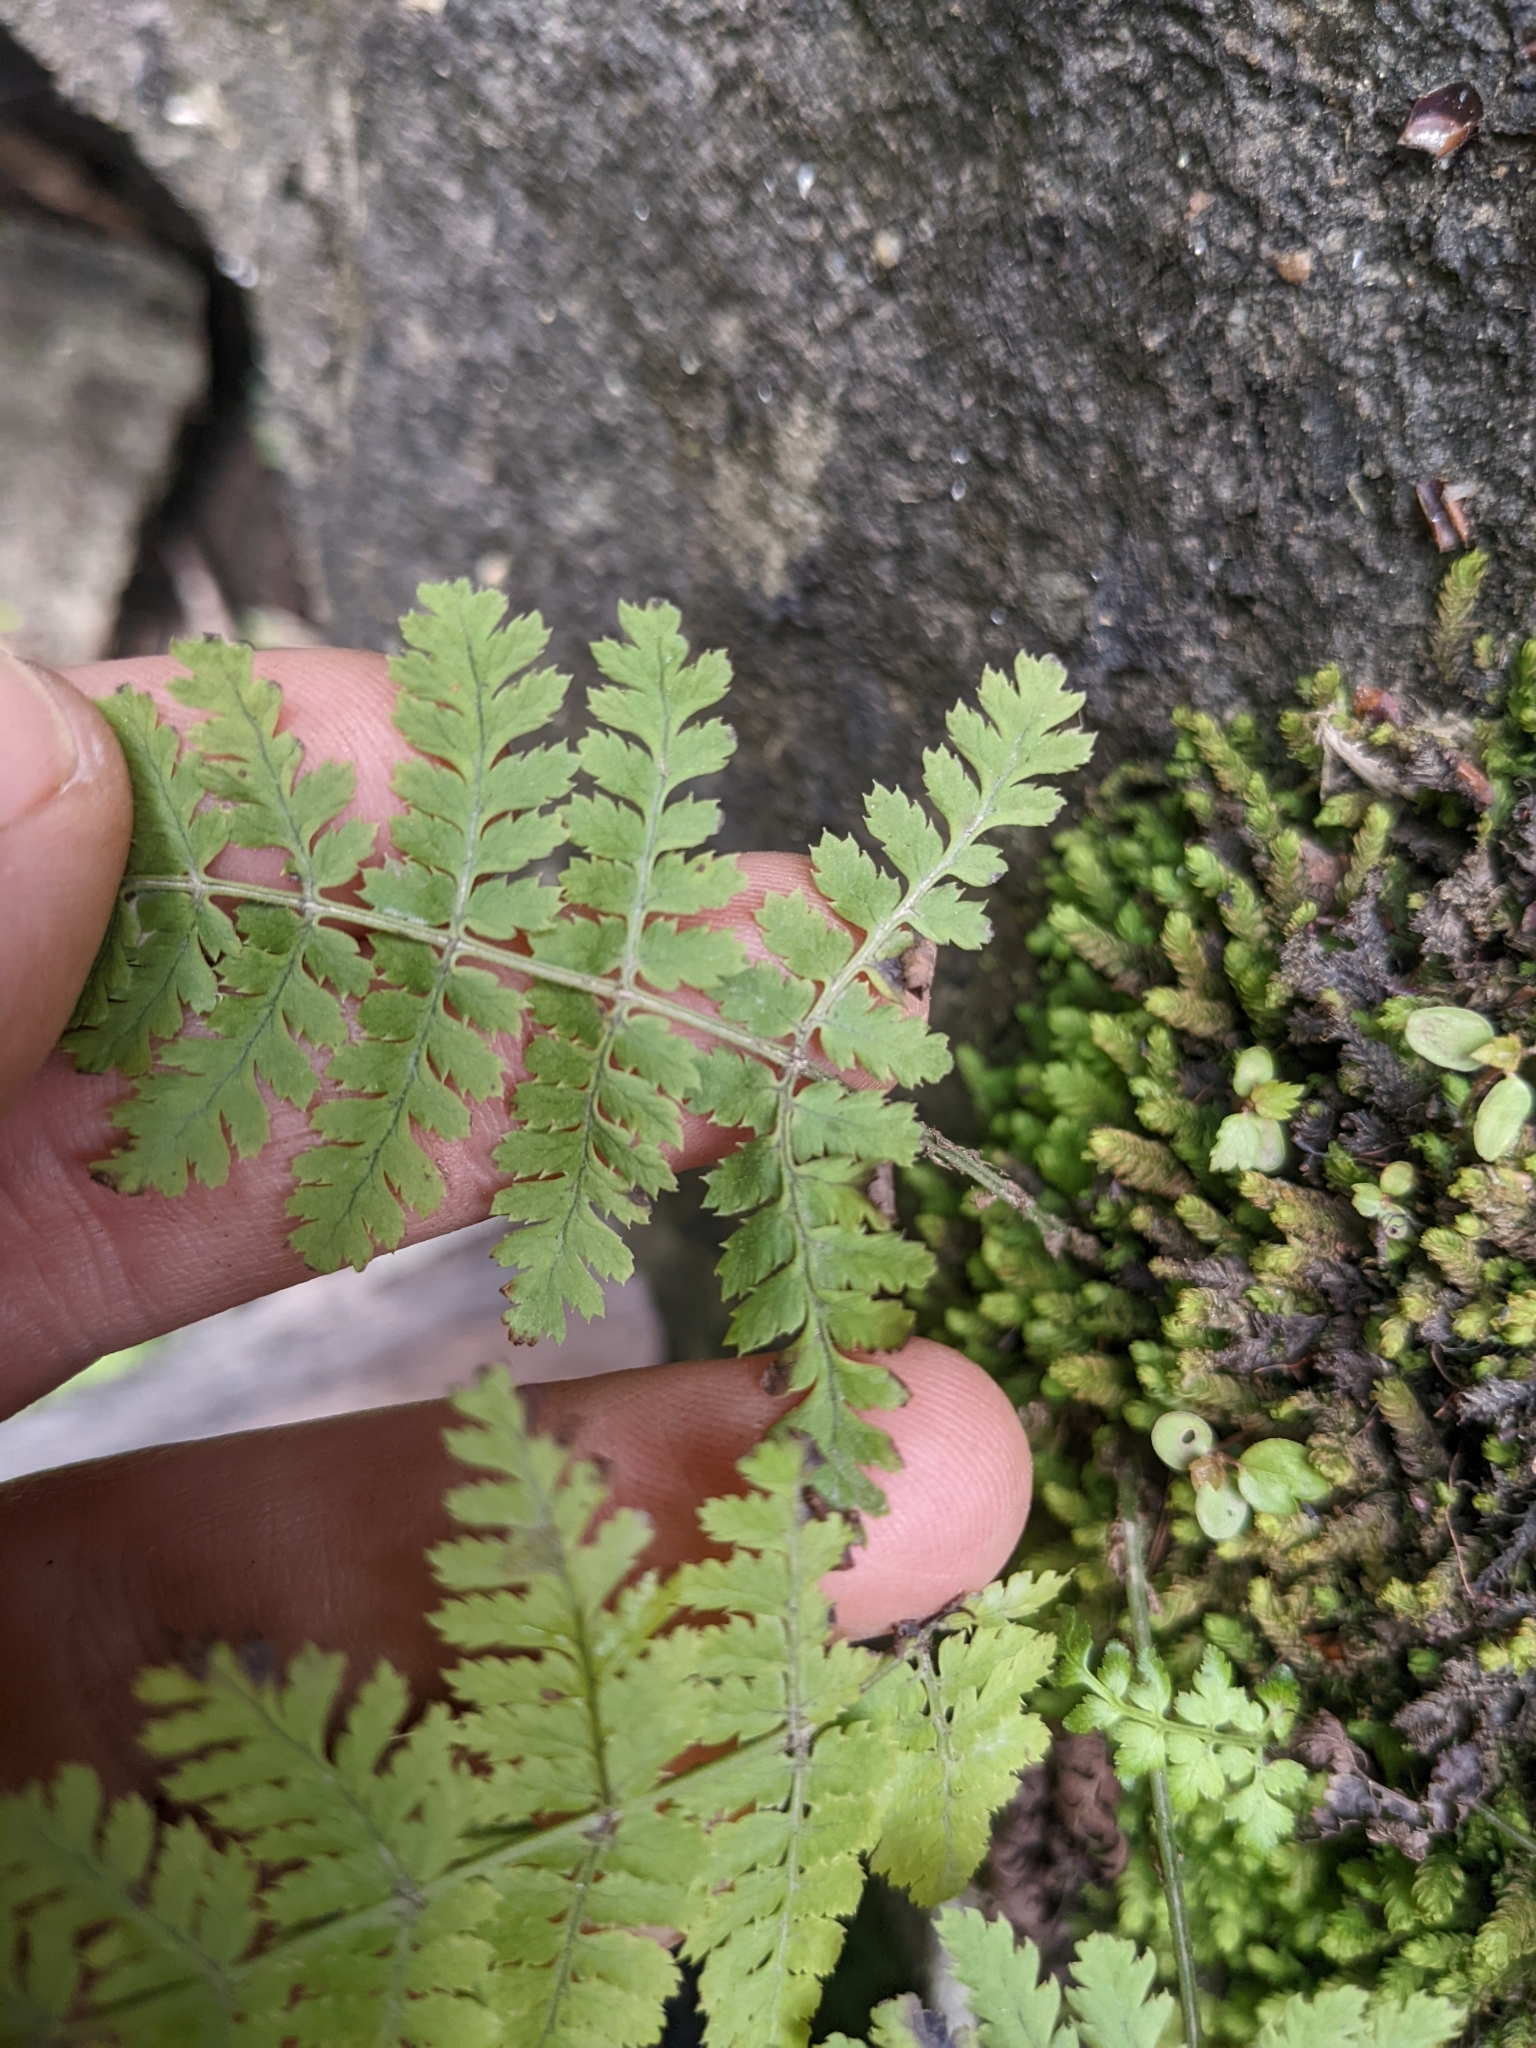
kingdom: Plantae
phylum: Tracheophyta
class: Polypodiopsida
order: Polypodiales
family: Dryopteridaceae
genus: Dryopteris
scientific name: Dryopteris intermedia
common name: Evergreen wood fern
